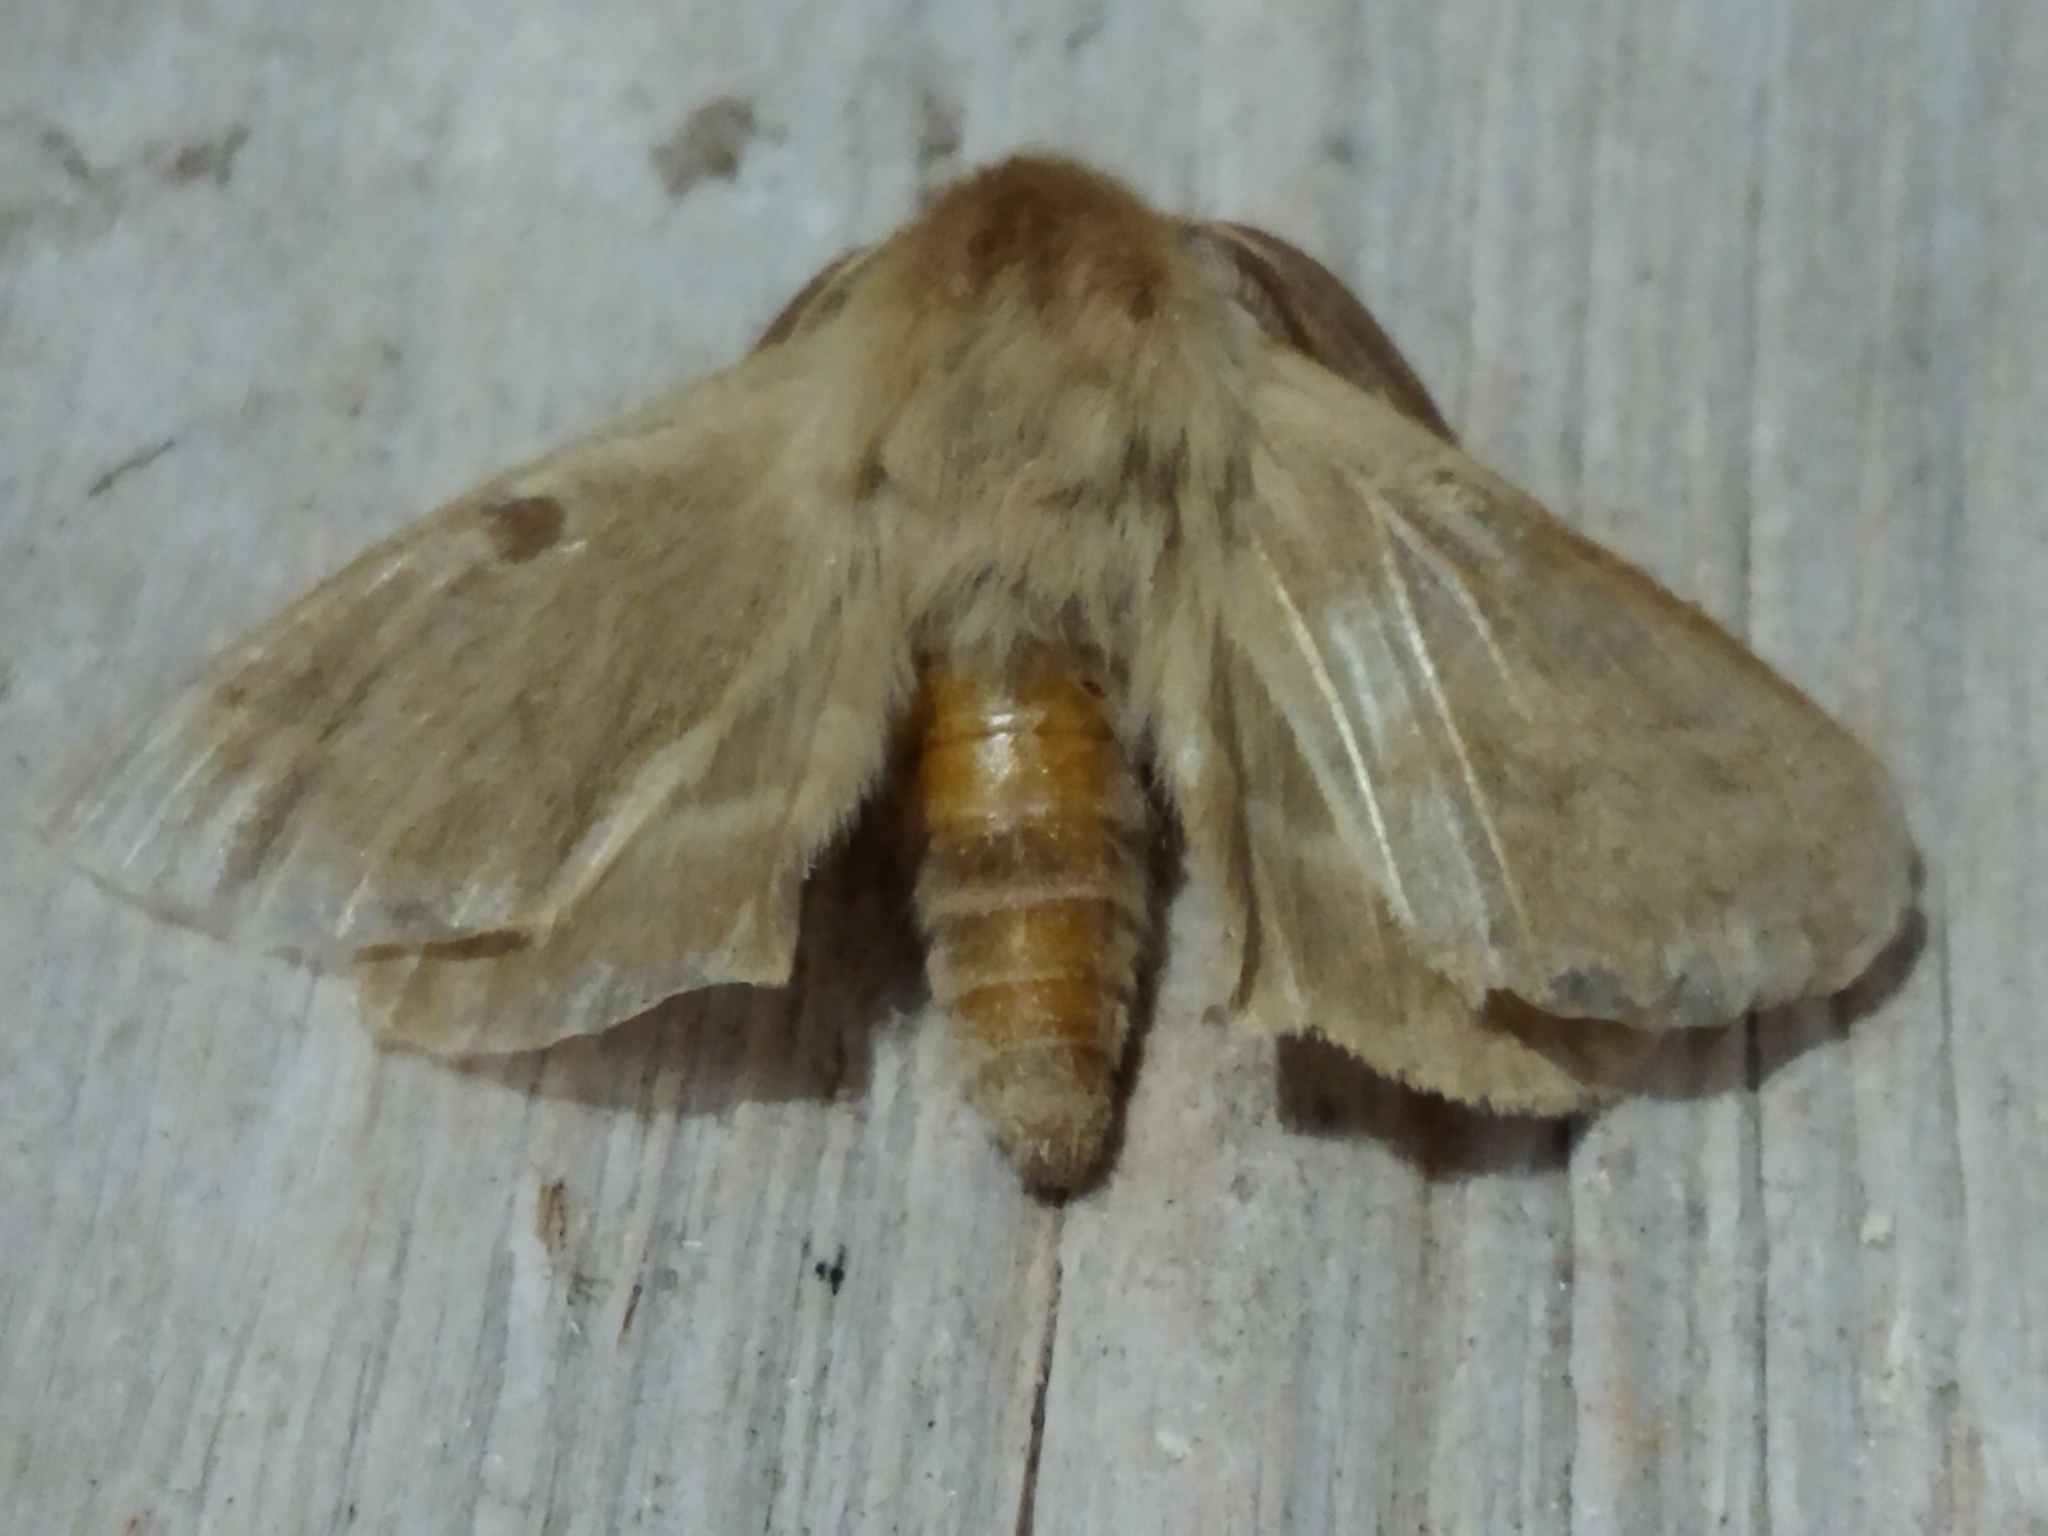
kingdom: Animalia
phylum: Arthropoda
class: Insecta
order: Lepidoptera
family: Brahmaeidae
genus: Lemonia
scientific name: Lemonia balcanica
